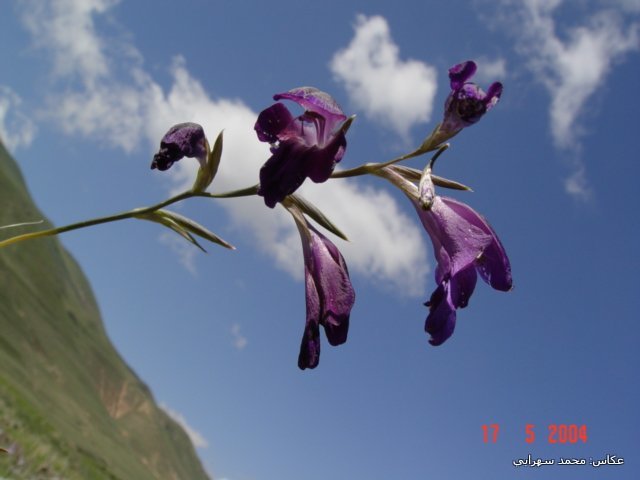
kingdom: Plantae
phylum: Tracheophyta
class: Liliopsida
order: Asparagales
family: Iridaceae
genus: Gladiolus
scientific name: Gladiolus atroviolaceus
